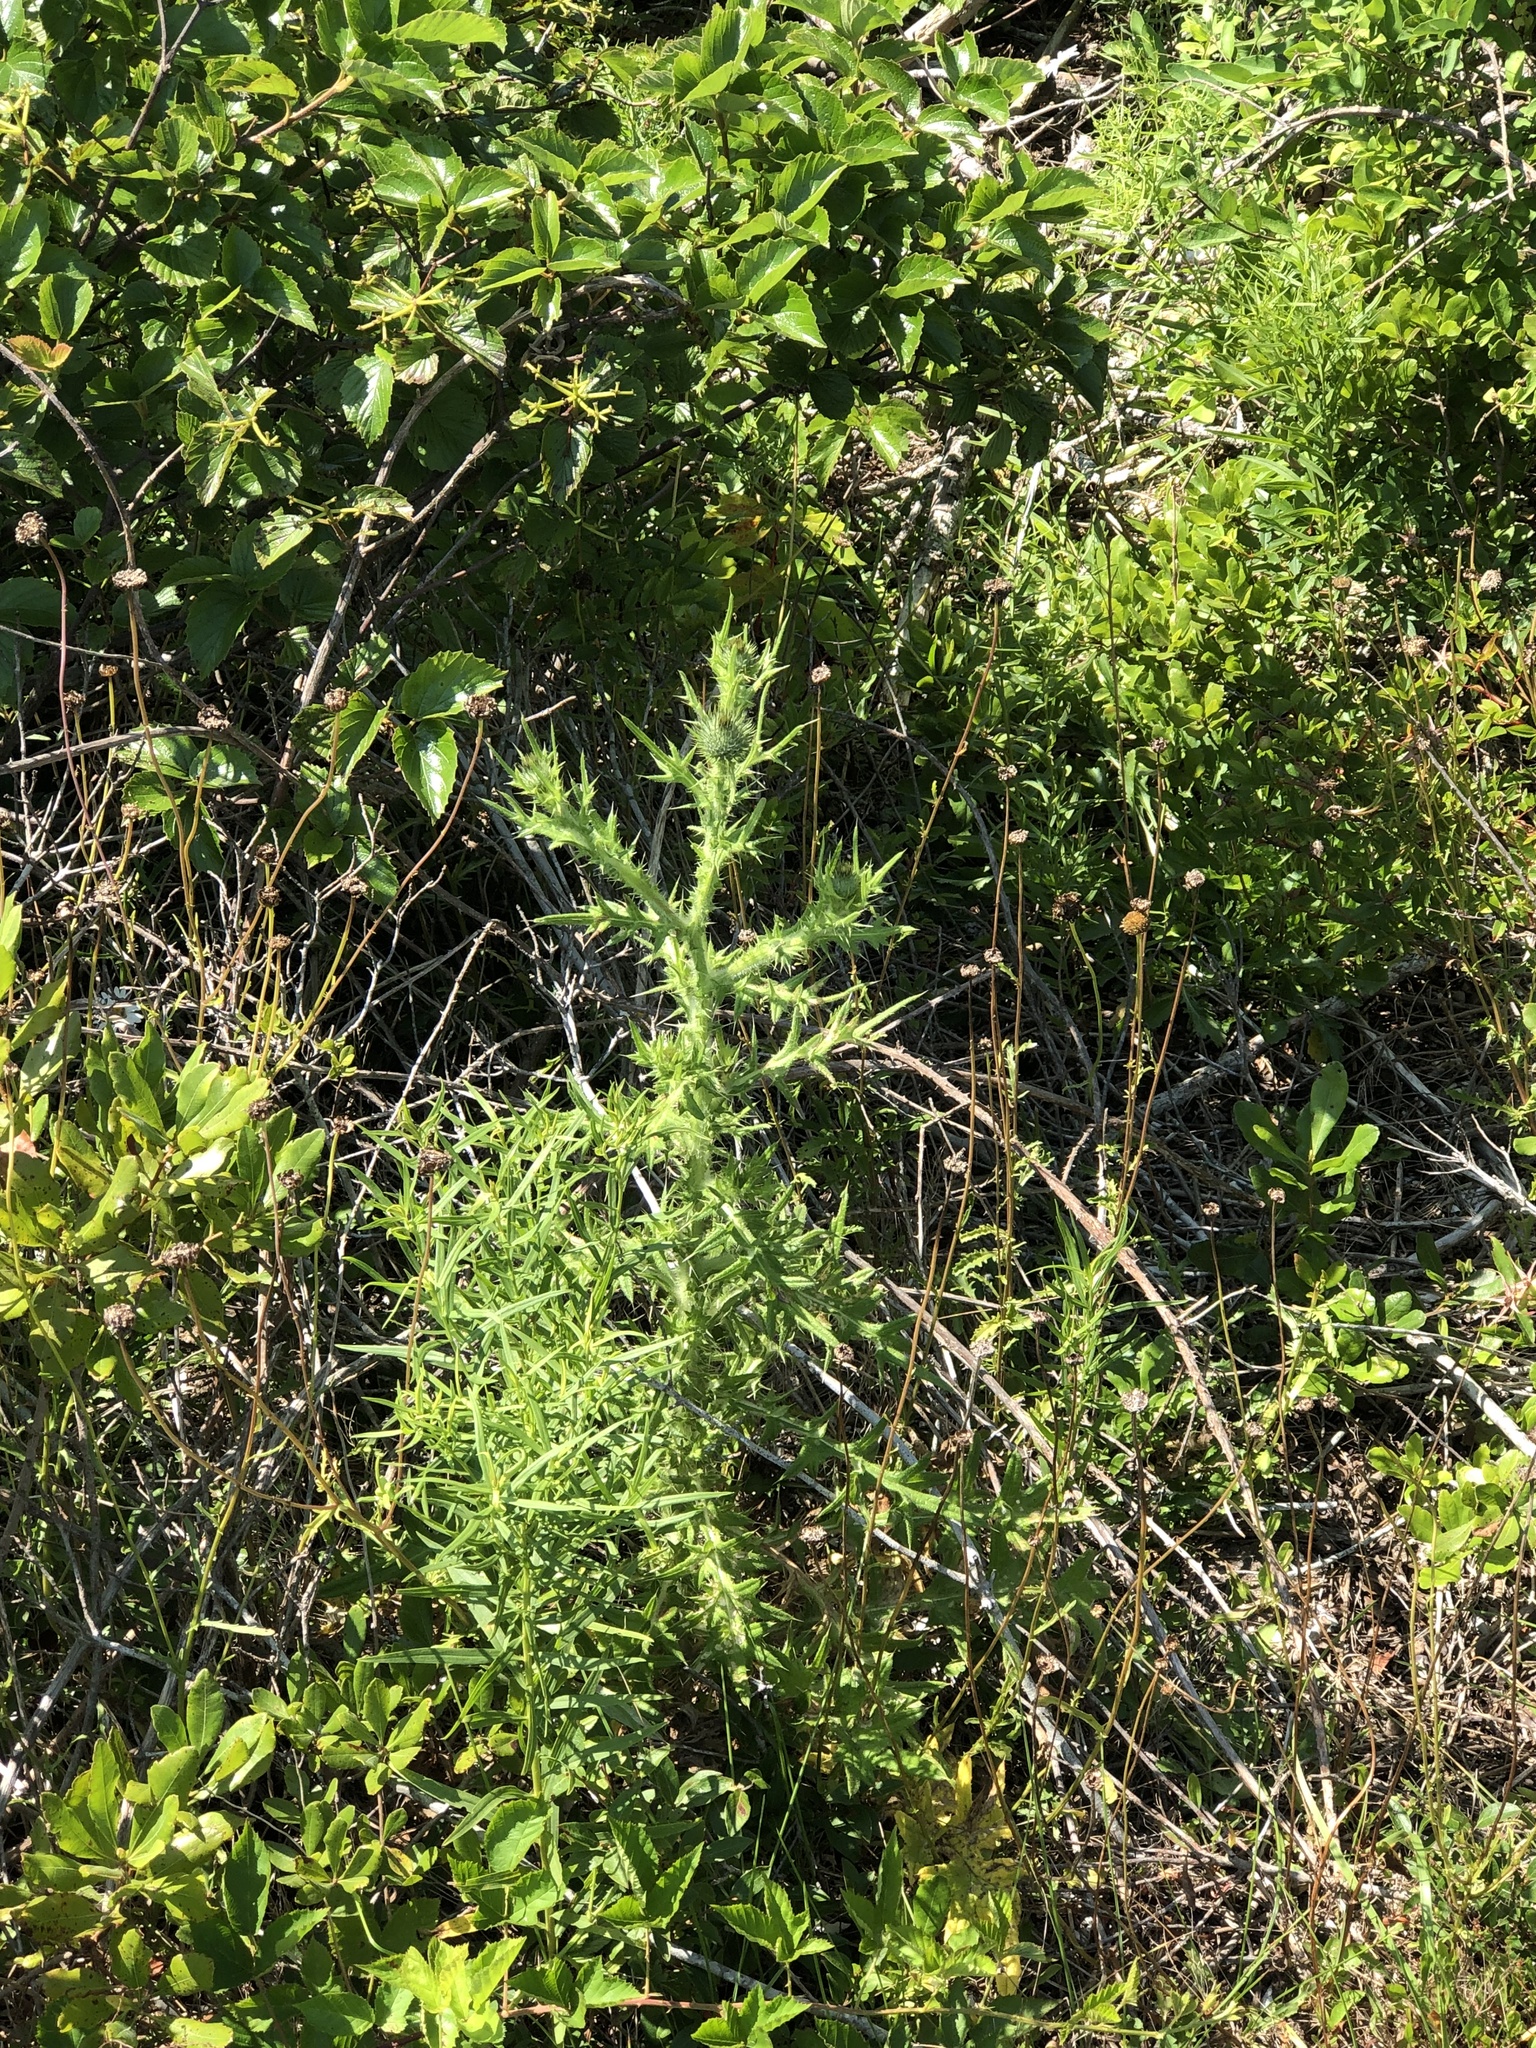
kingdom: Plantae
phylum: Tracheophyta
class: Magnoliopsida
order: Asterales
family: Asteraceae
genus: Cirsium
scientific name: Cirsium vulgare
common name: Bull thistle
